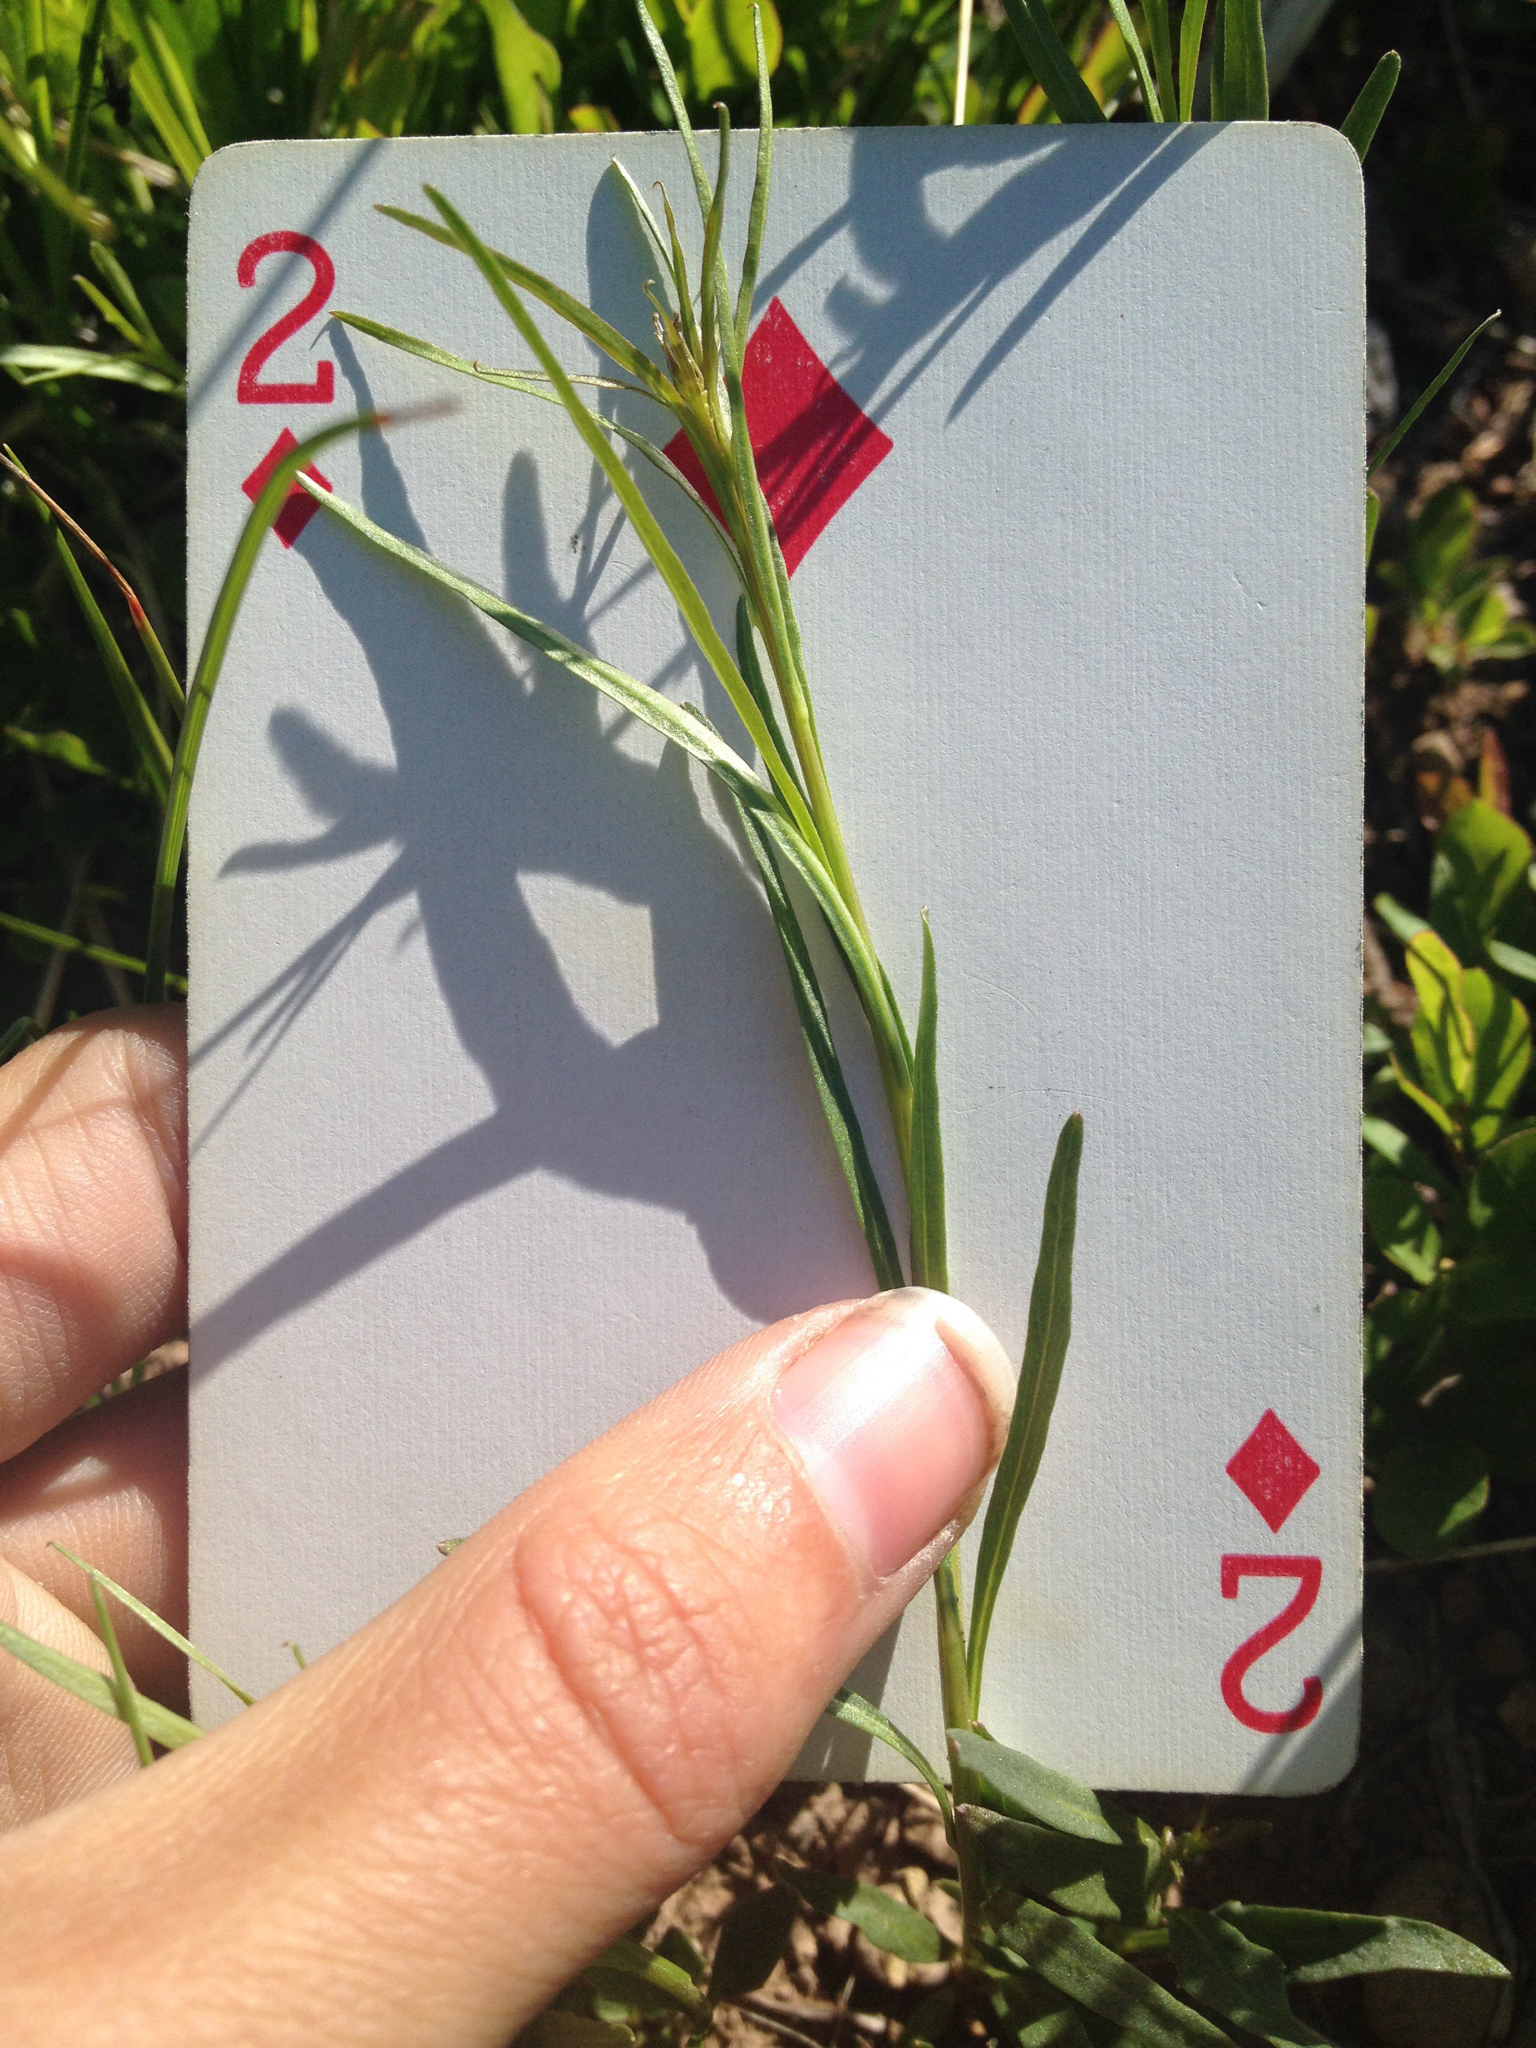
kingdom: Plantae
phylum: Tracheophyta
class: Magnoliopsida
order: Asterales
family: Campanulaceae
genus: Campanula
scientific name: Campanula petiolata
